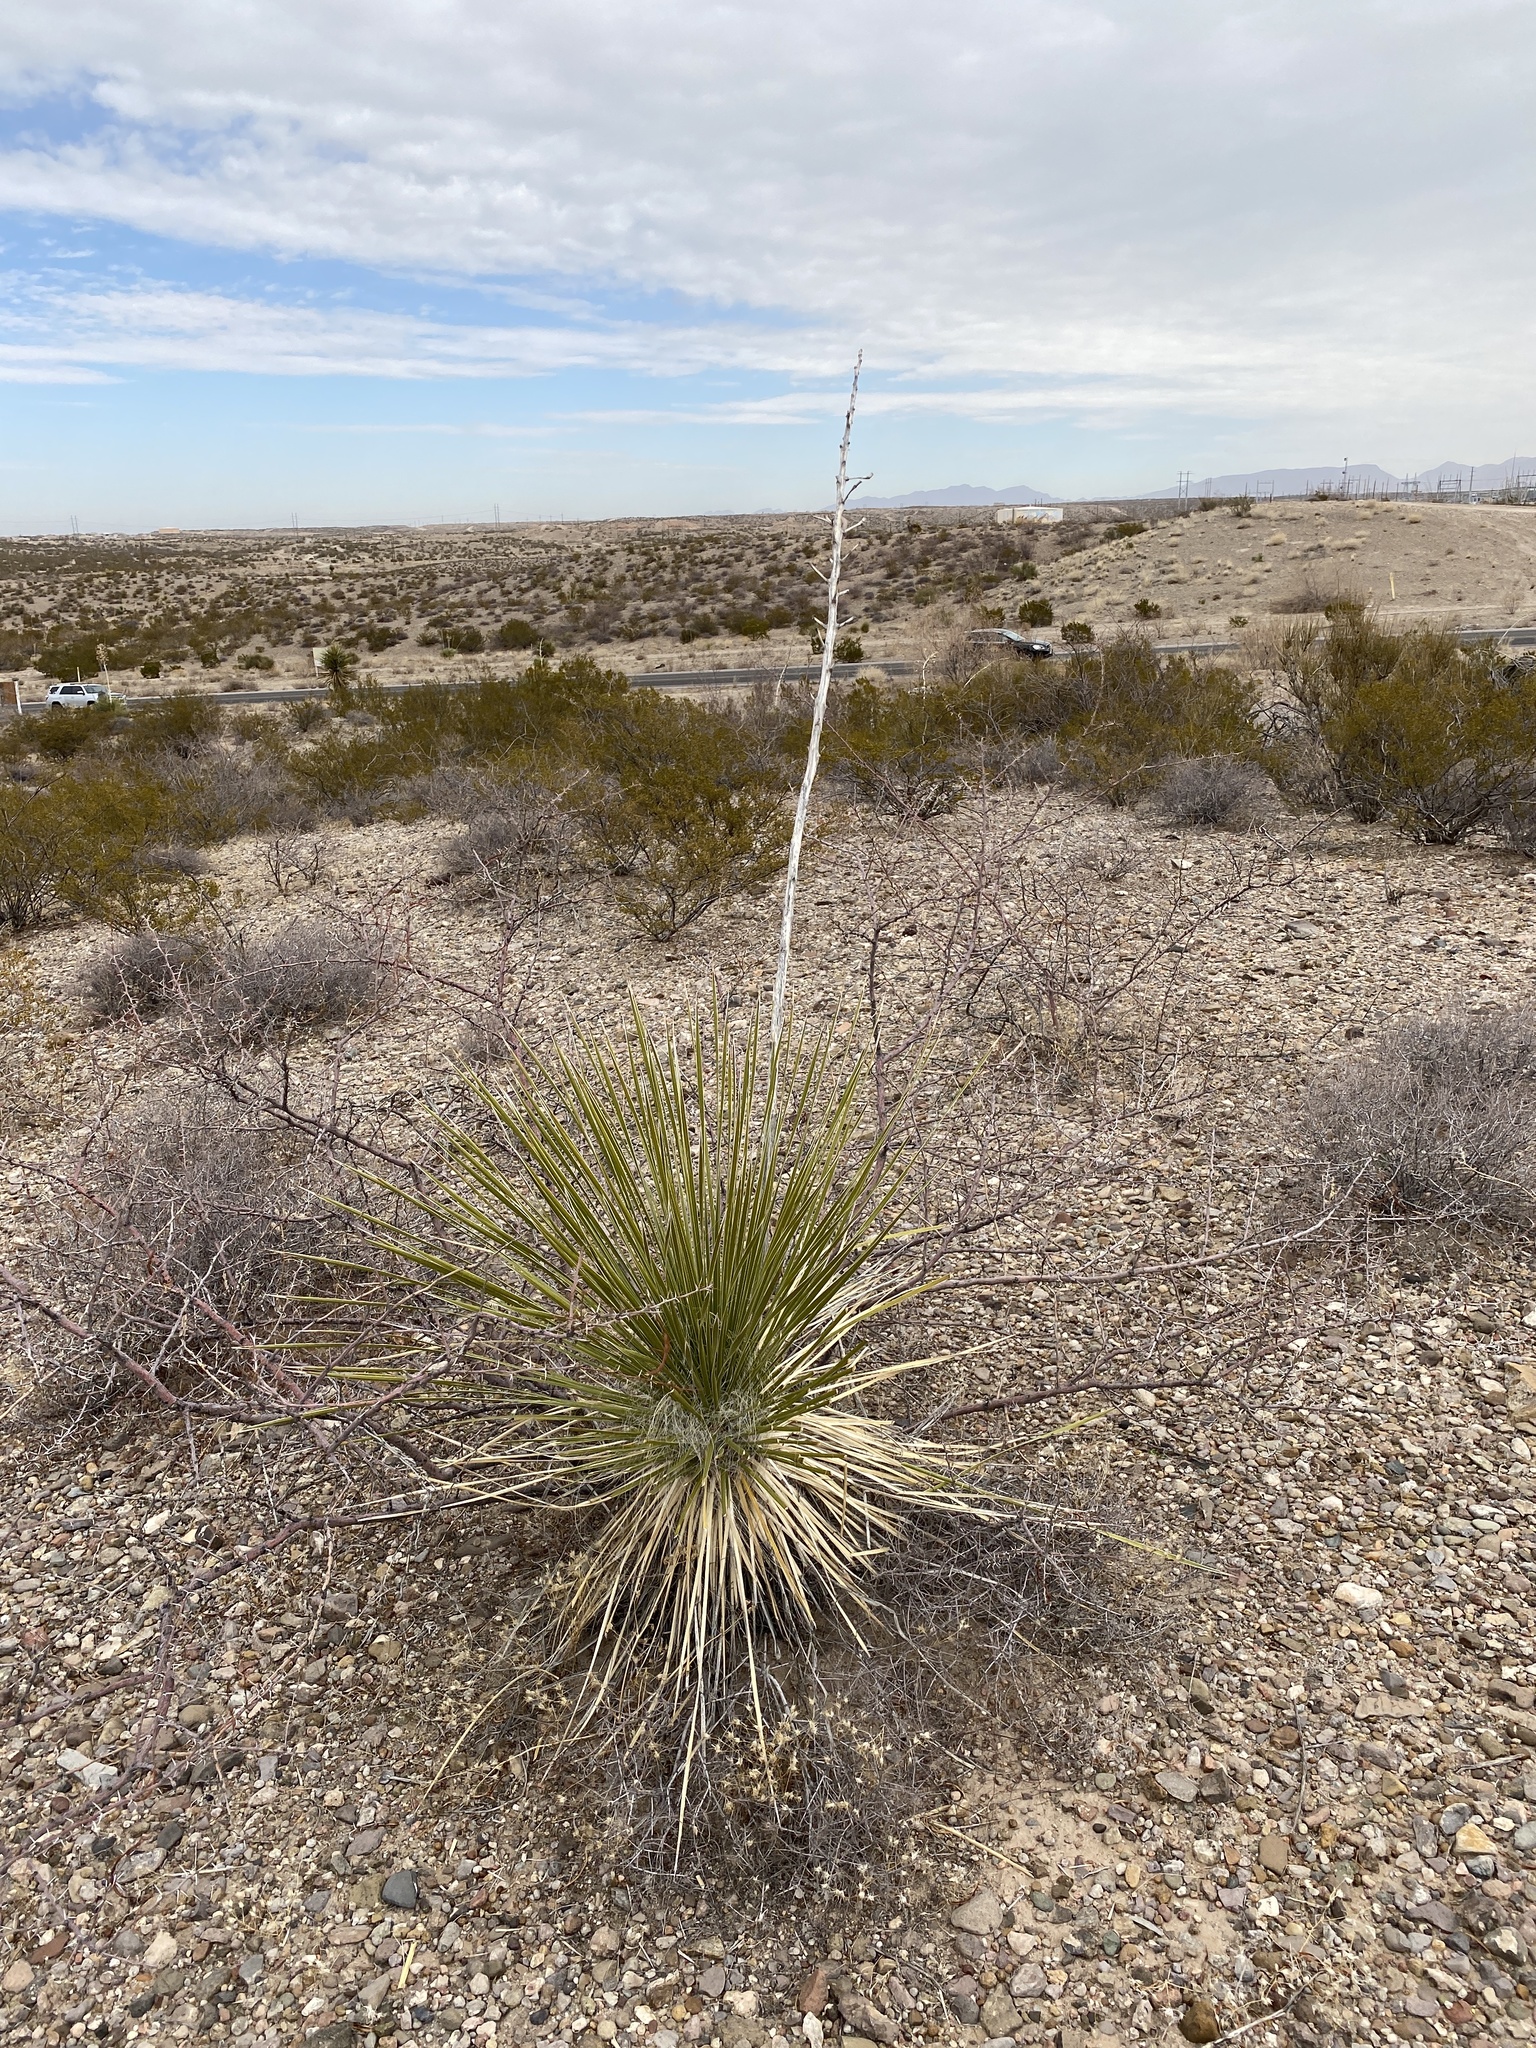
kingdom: Plantae
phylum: Tracheophyta
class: Liliopsida
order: Asparagales
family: Asparagaceae
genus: Yucca
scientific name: Yucca elata
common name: Palmella
